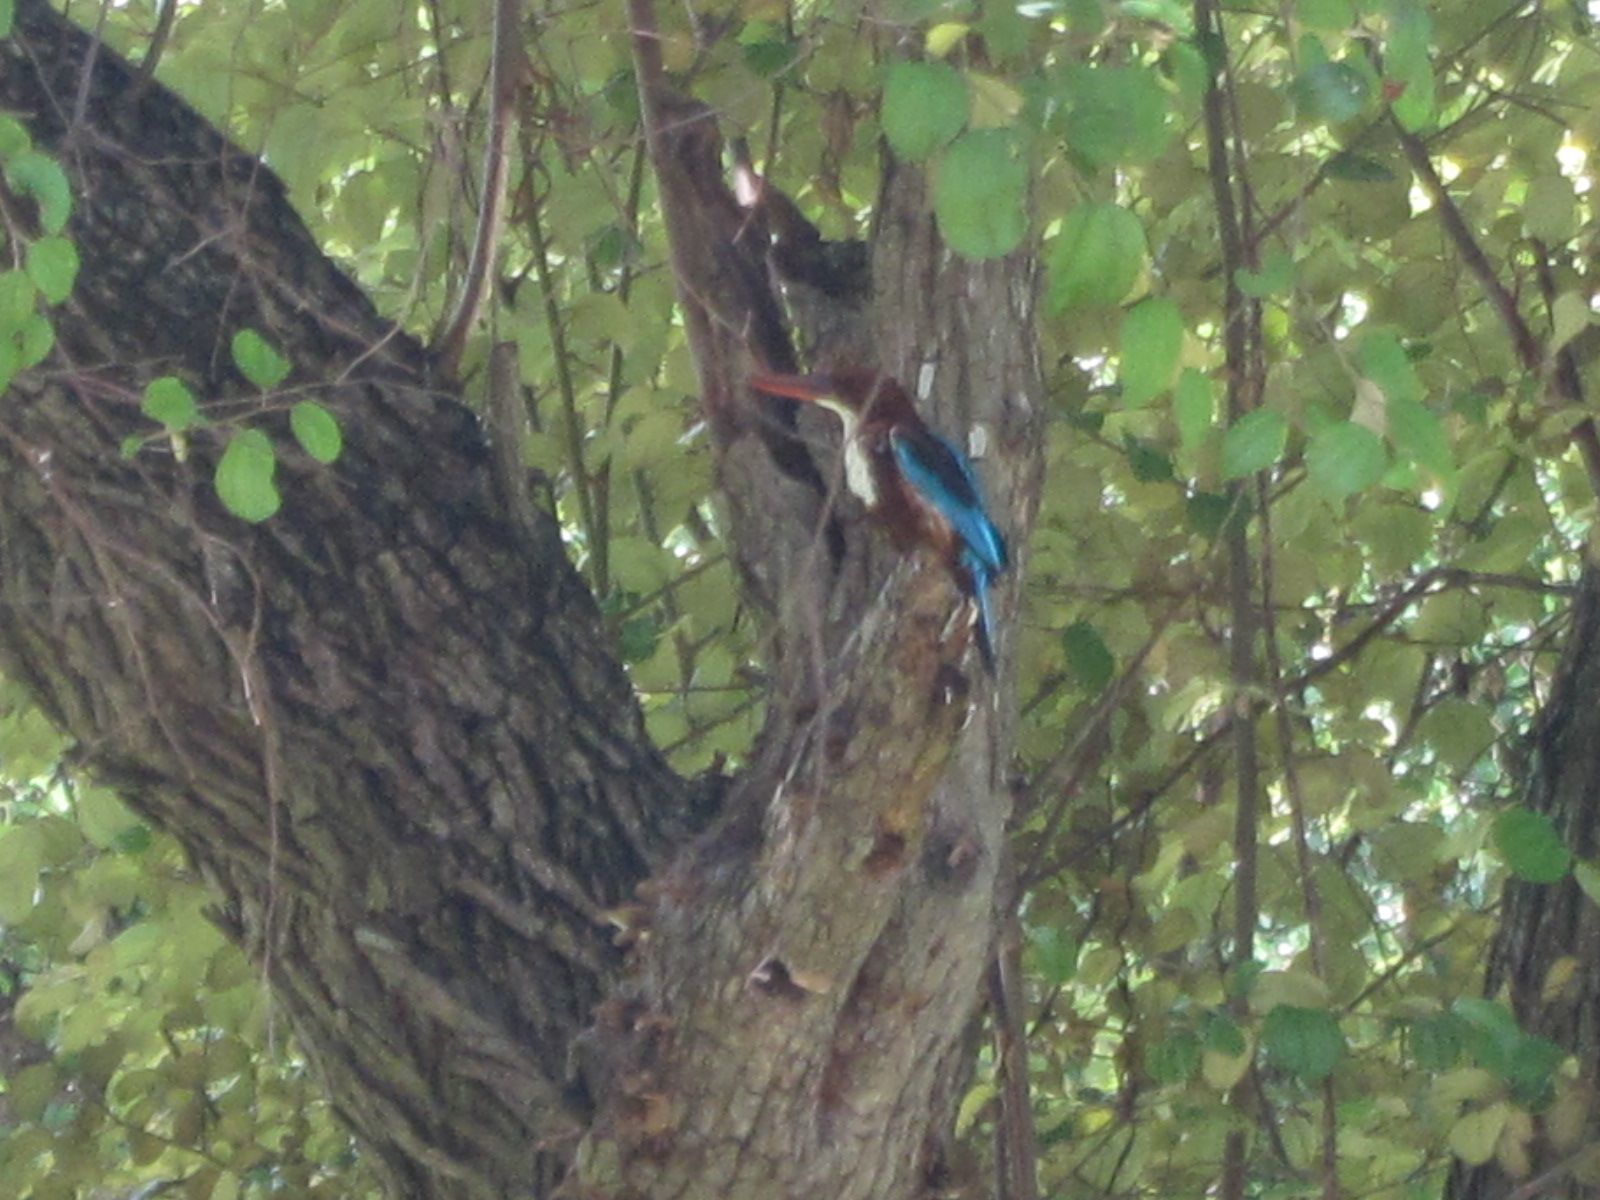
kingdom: Animalia
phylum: Chordata
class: Aves
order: Coraciiformes
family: Alcedinidae
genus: Halcyon
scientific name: Halcyon smyrnensis
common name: White-throated kingfisher
